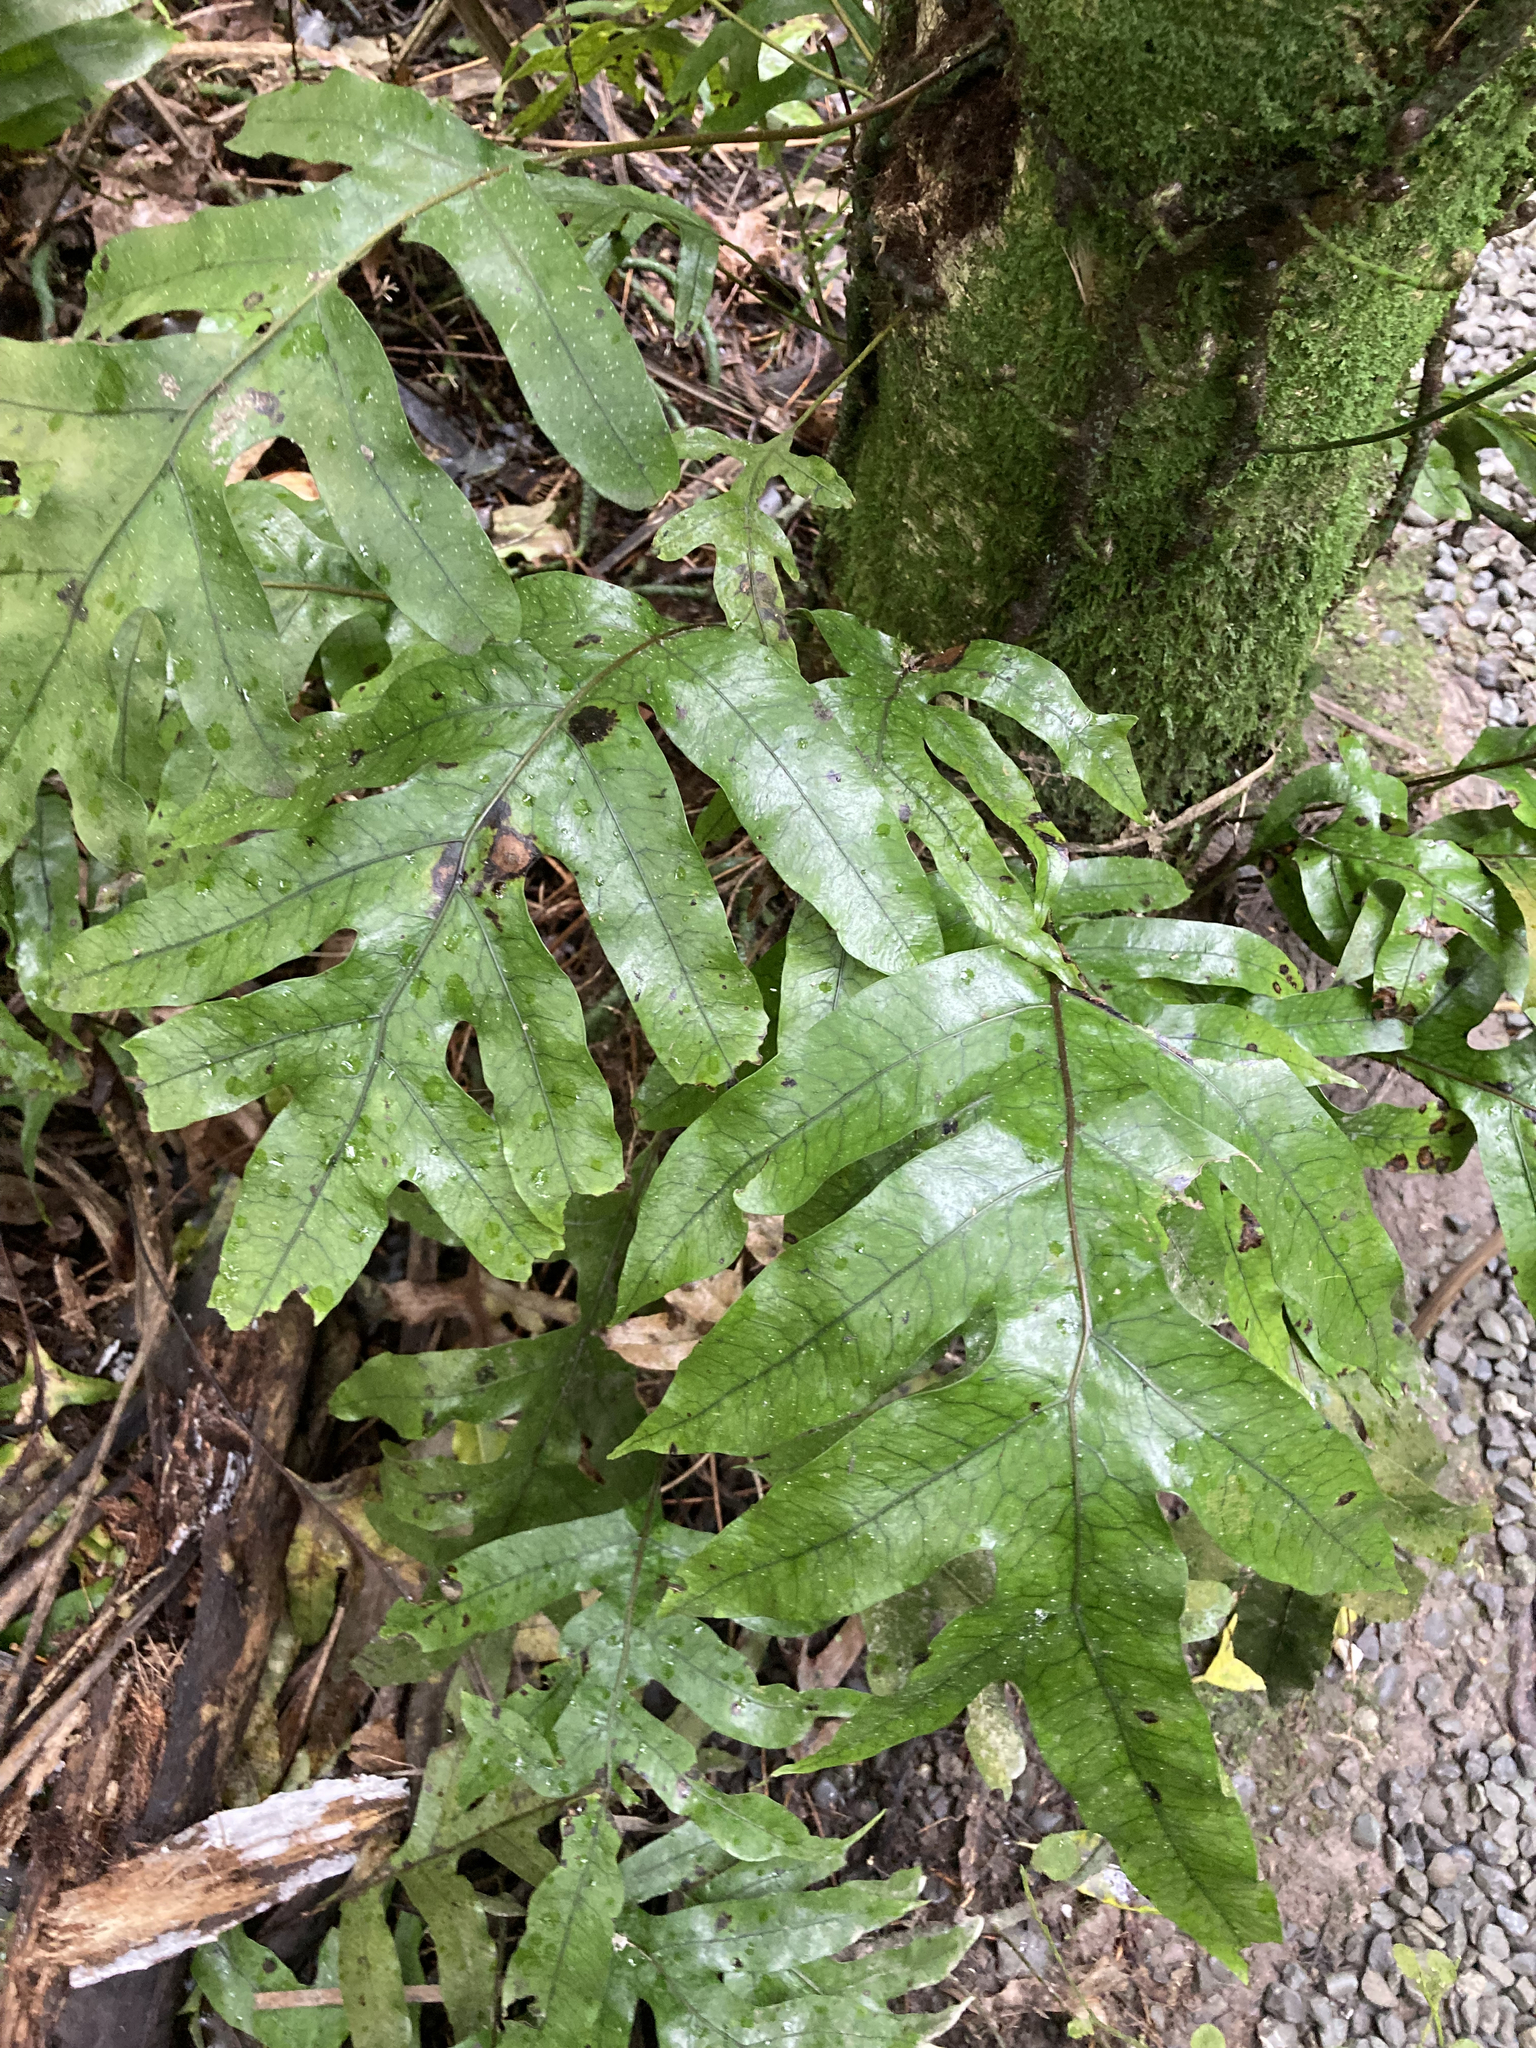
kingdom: Plantae
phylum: Tracheophyta
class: Polypodiopsida
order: Polypodiales
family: Polypodiaceae
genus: Lecanopteris
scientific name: Lecanopteris pustulata
